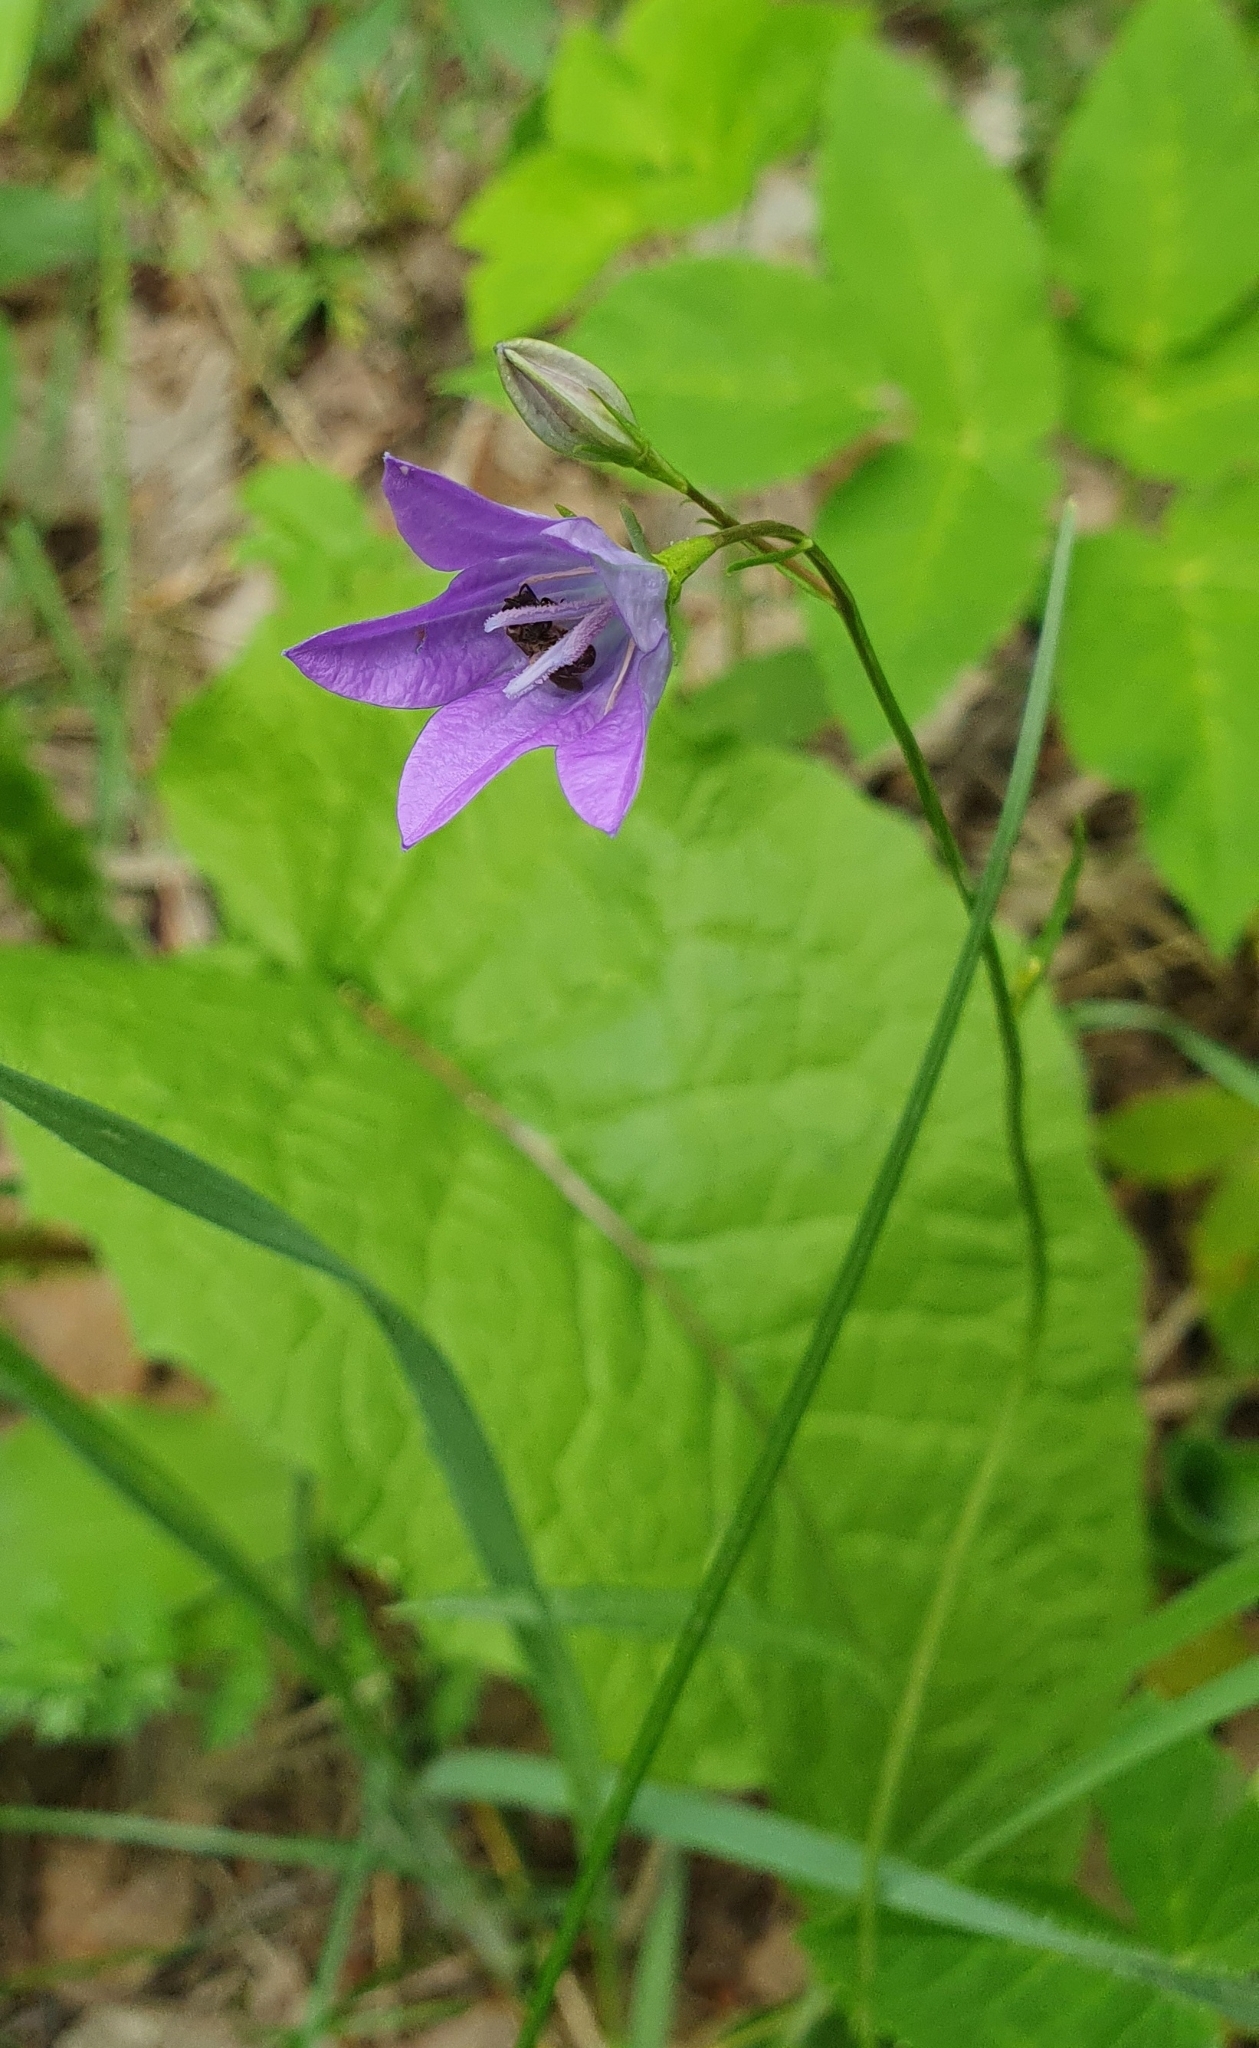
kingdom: Plantae
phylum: Tracheophyta
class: Magnoliopsida
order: Asterales
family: Campanulaceae
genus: Campanula
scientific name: Campanula stevenii
